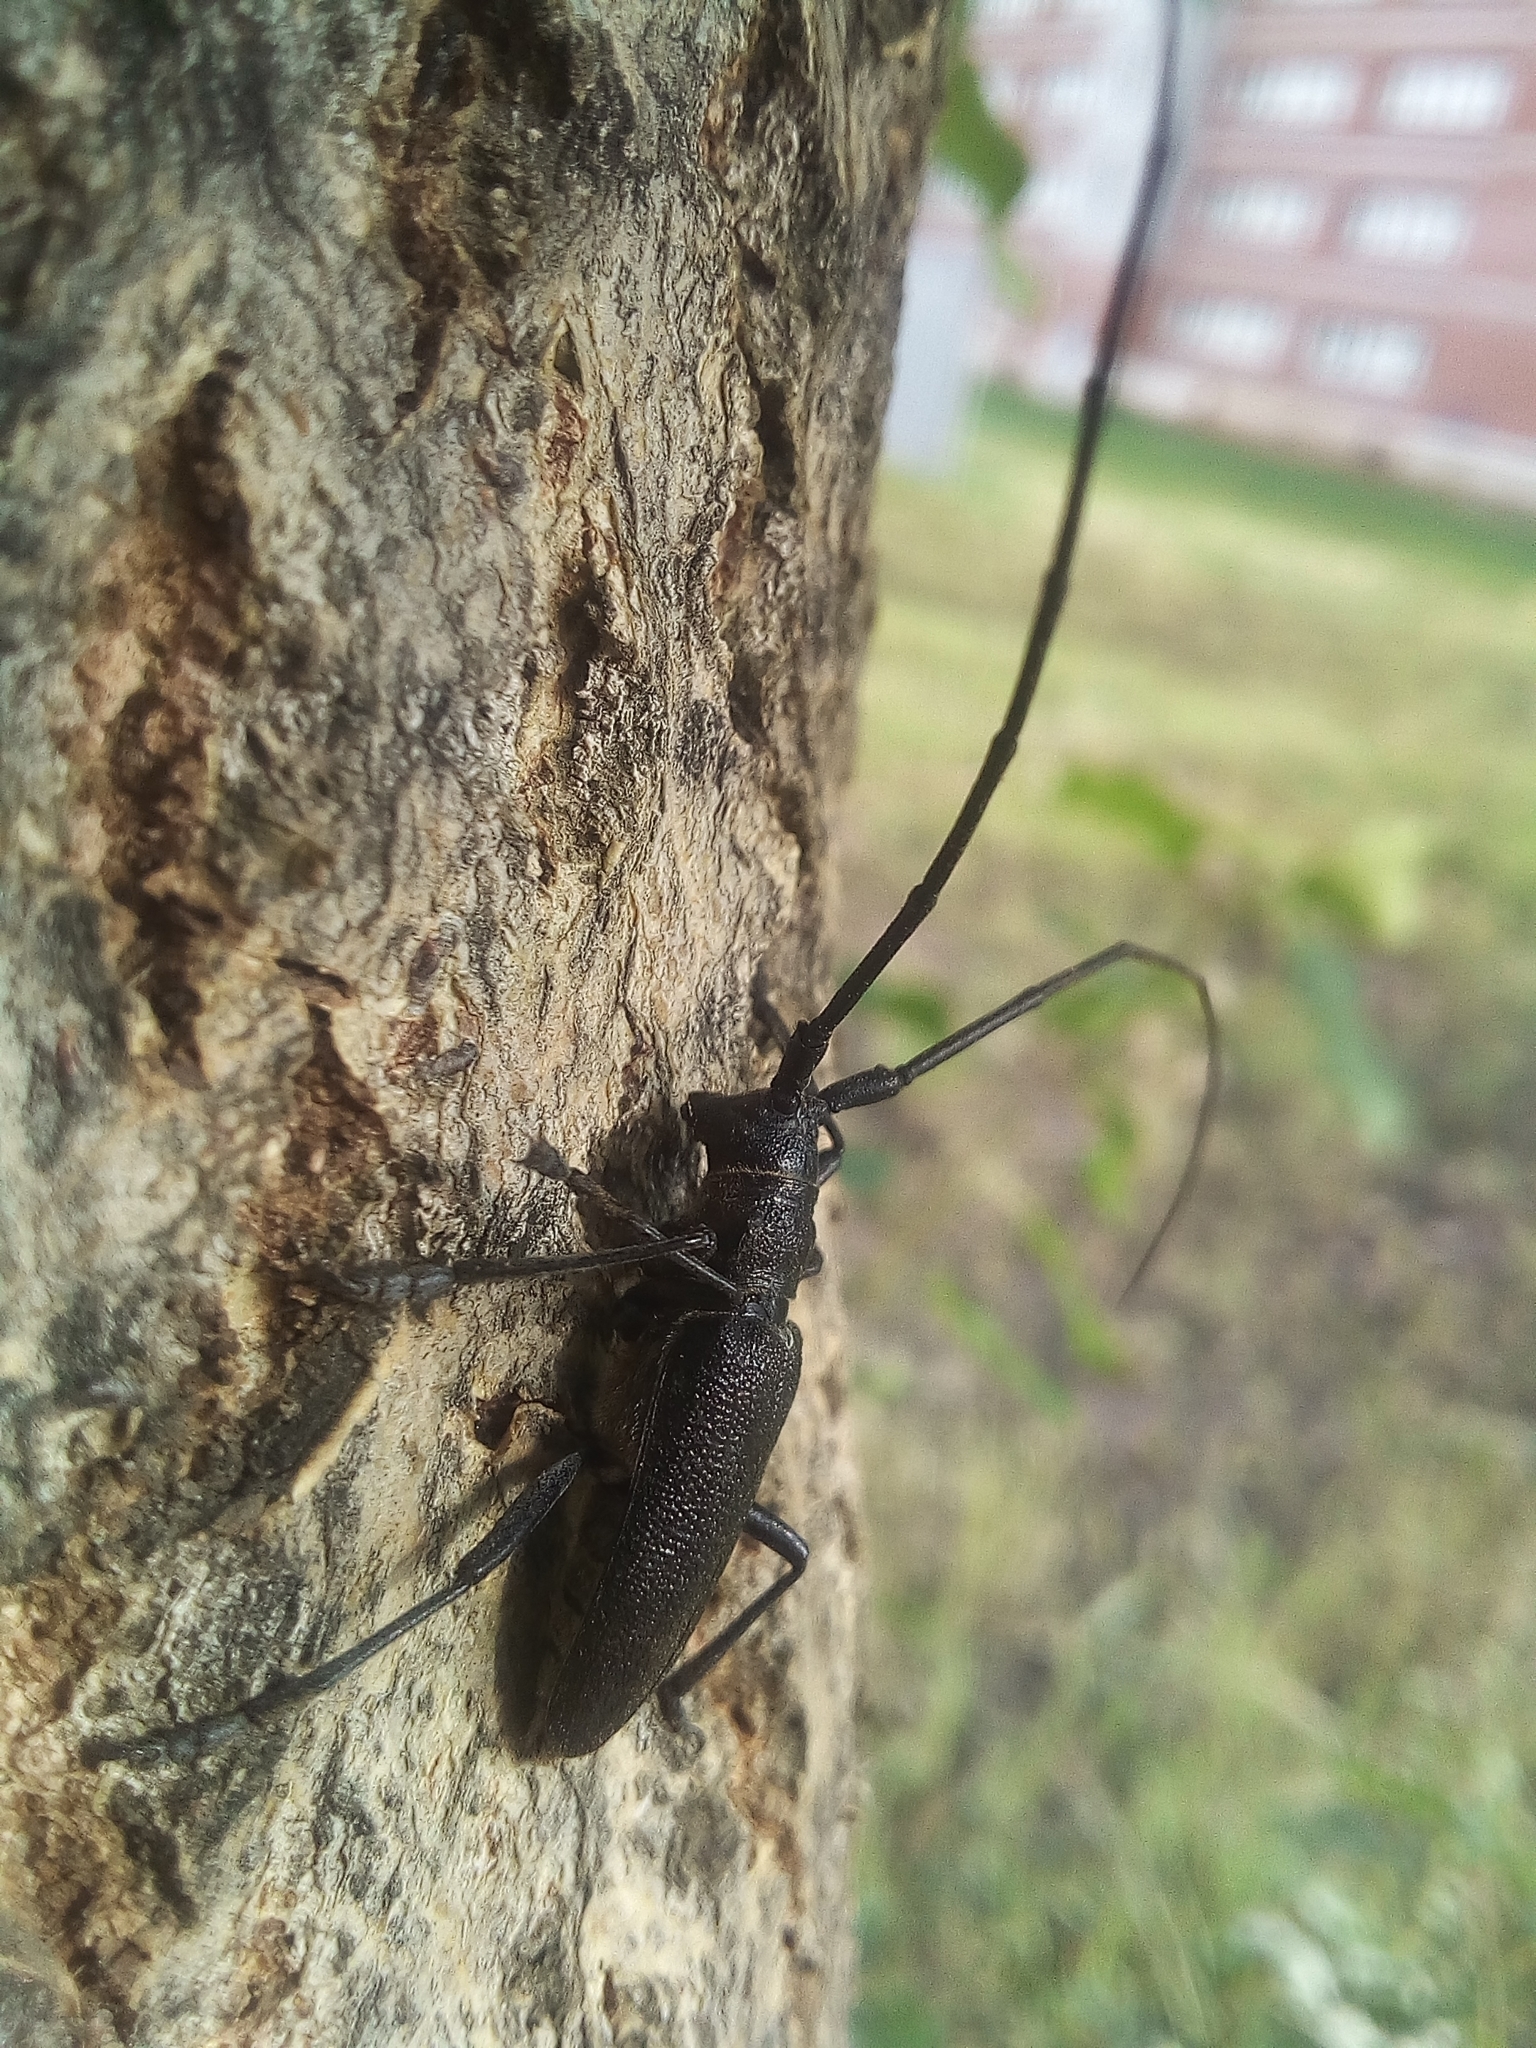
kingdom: Animalia
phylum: Arthropoda
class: Insecta
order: Coleoptera
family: Cerambycidae
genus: Monochamus
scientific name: Monochamus sutor
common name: Pine sawyer
